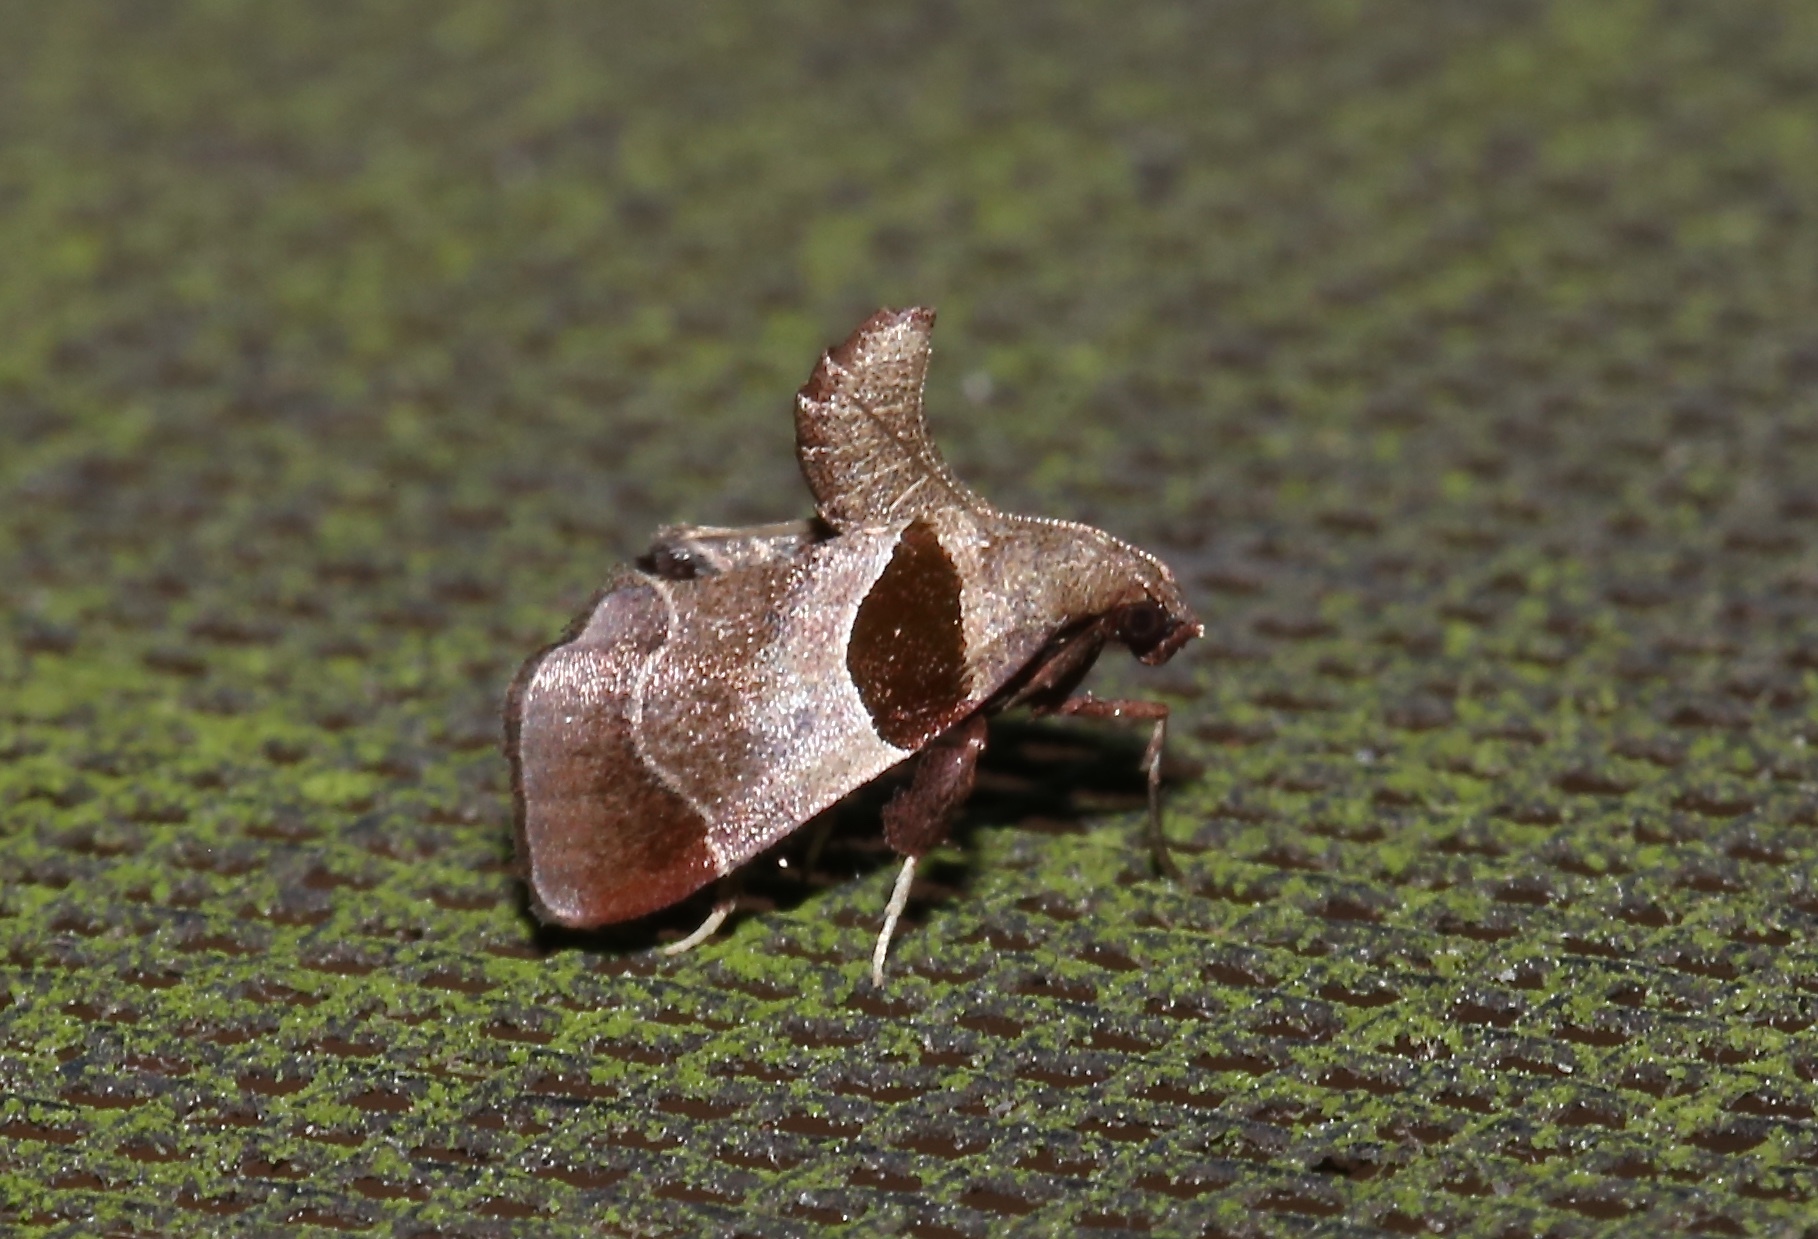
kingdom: Animalia
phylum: Arthropoda
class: Insecta
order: Lepidoptera
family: Pyralidae
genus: Tosale
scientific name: Tosale oviplagalis
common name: Dimorphic tosale moth
